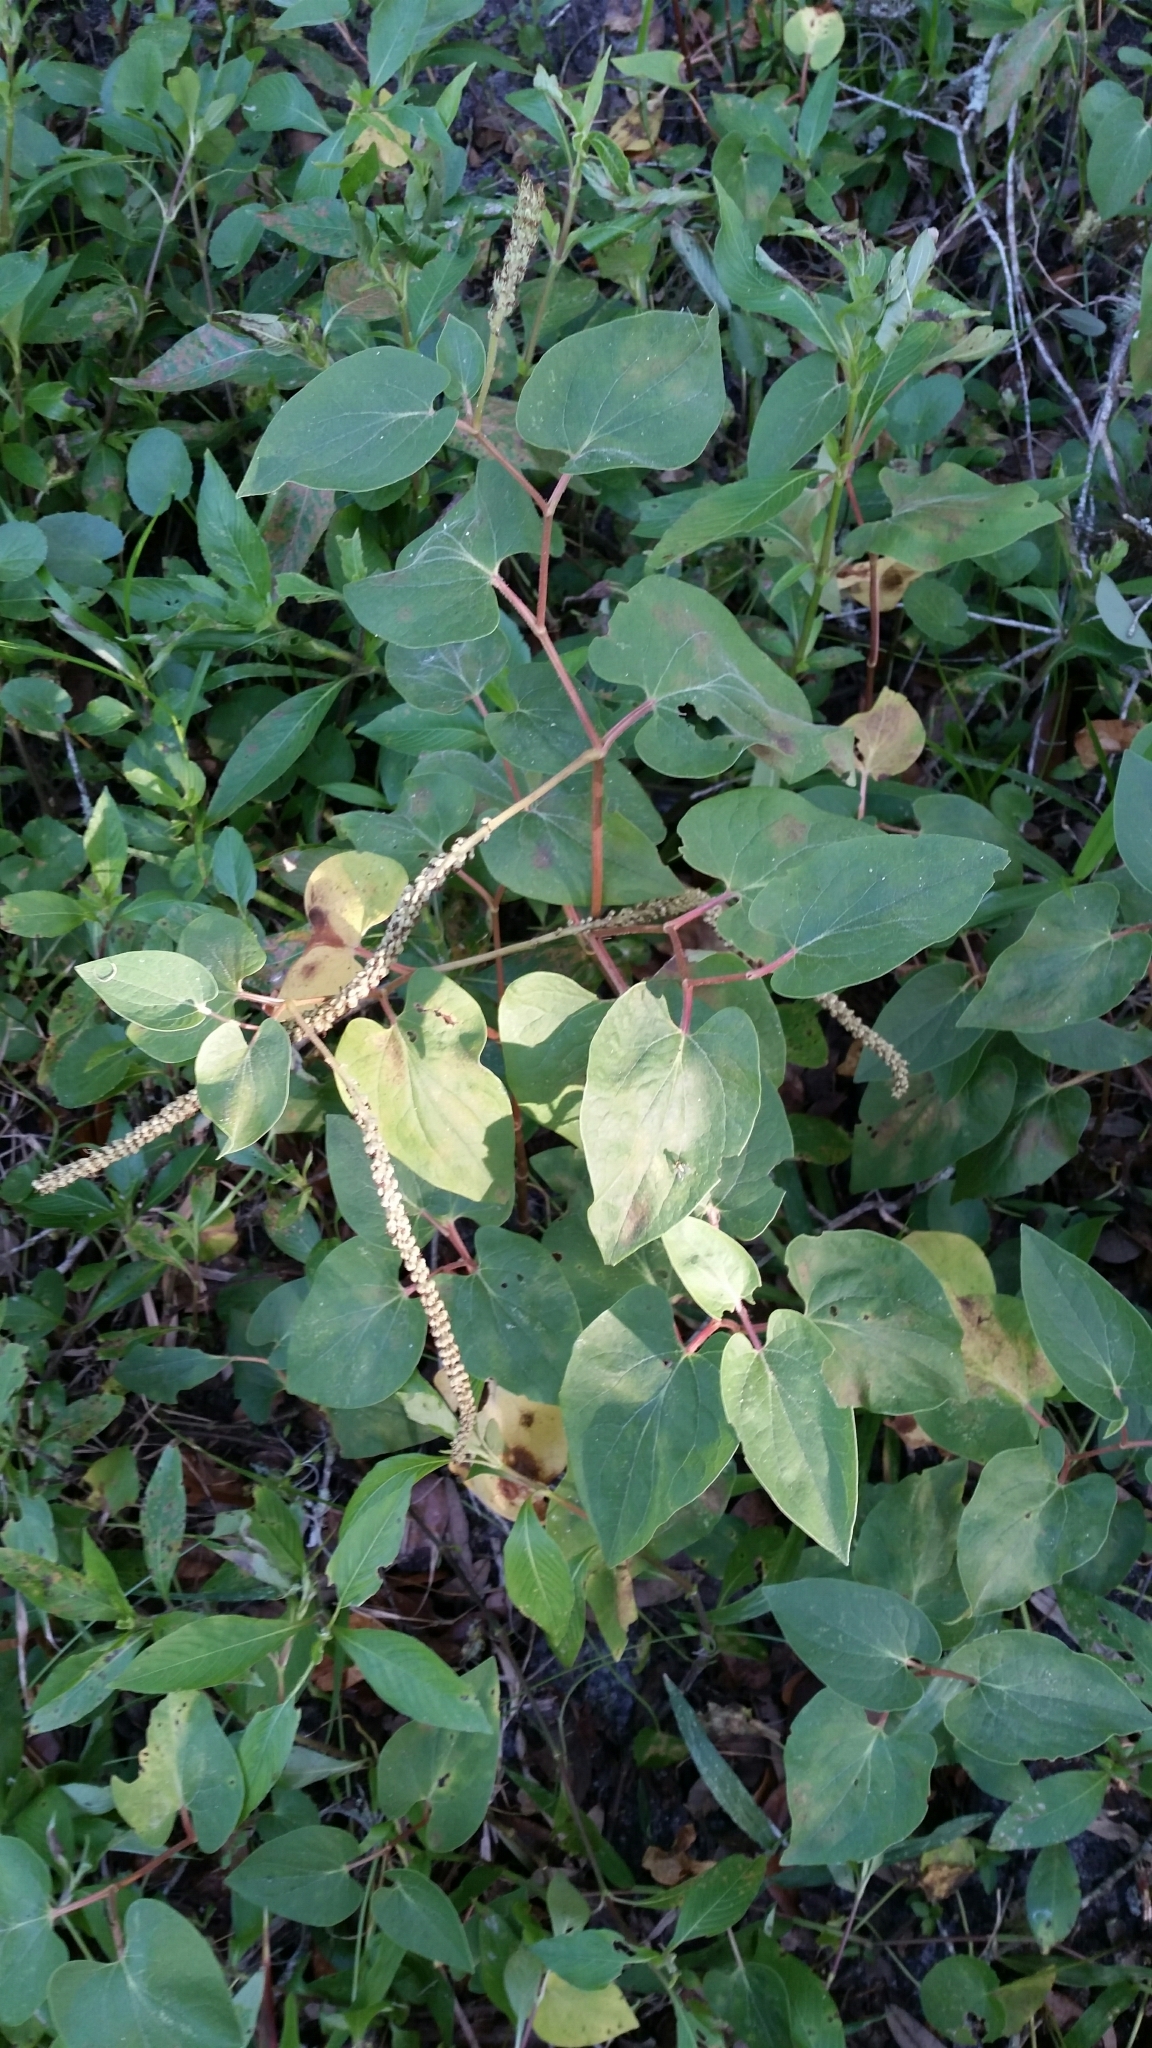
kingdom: Plantae
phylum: Tracheophyta
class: Magnoliopsida
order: Piperales
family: Saururaceae
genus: Saururus
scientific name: Saururus cernuus
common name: Lizard's-tail
